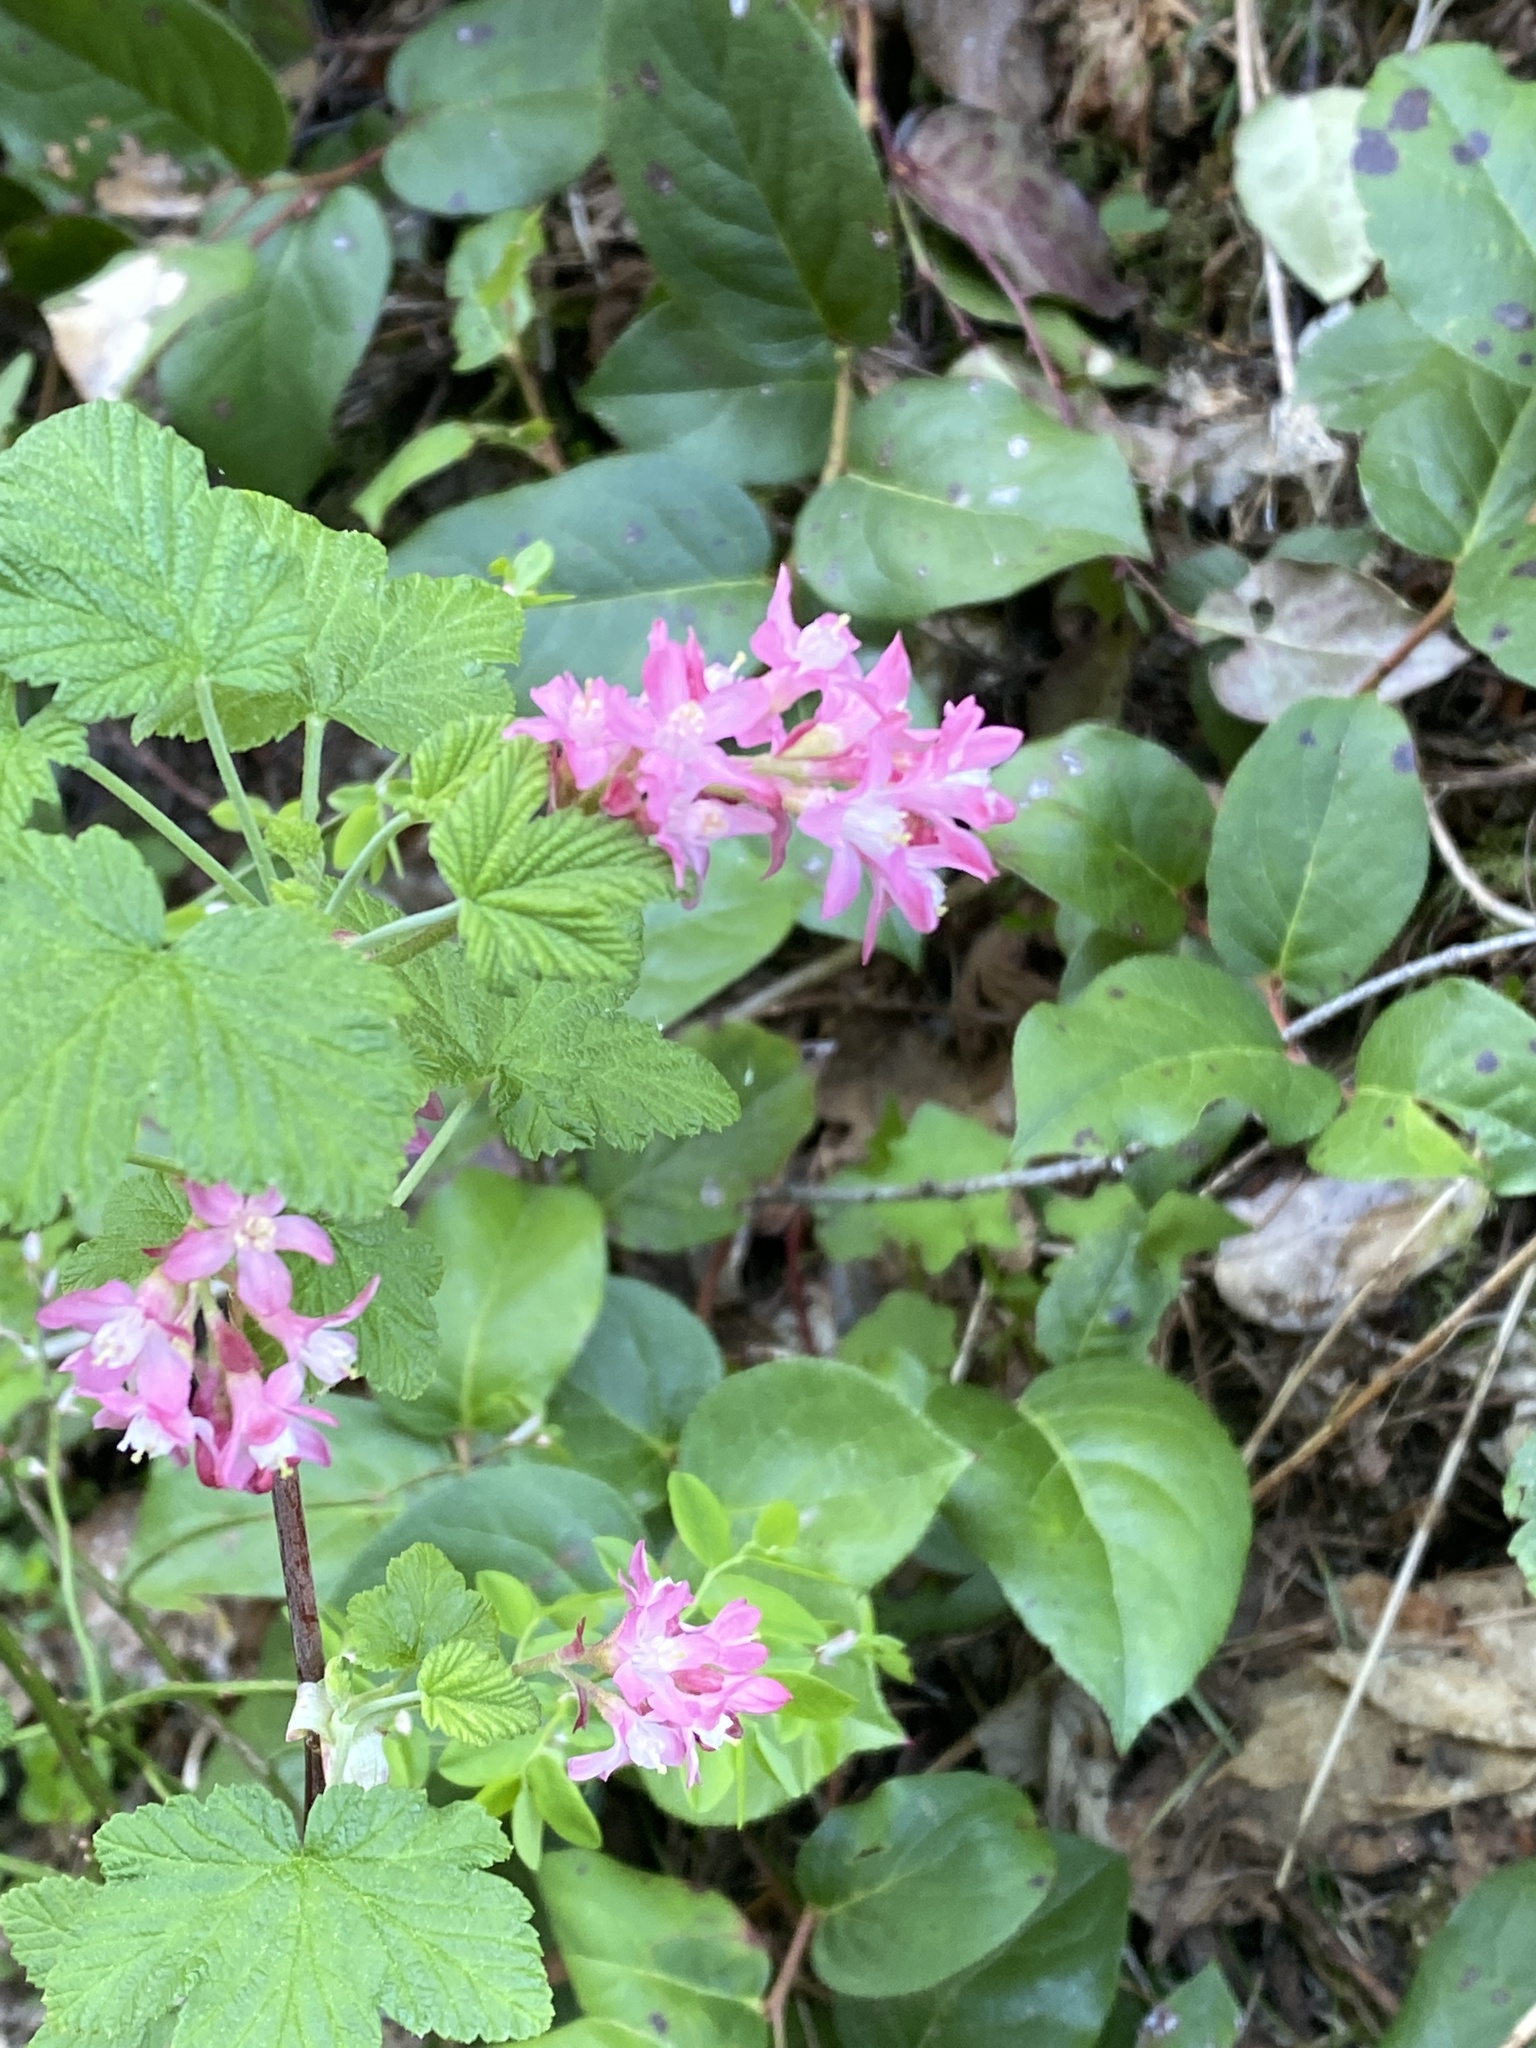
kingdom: Plantae
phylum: Tracheophyta
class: Magnoliopsida
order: Saxifragales
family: Grossulariaceae
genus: Ribes
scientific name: Ribes sanguineum
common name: Flowering currant
